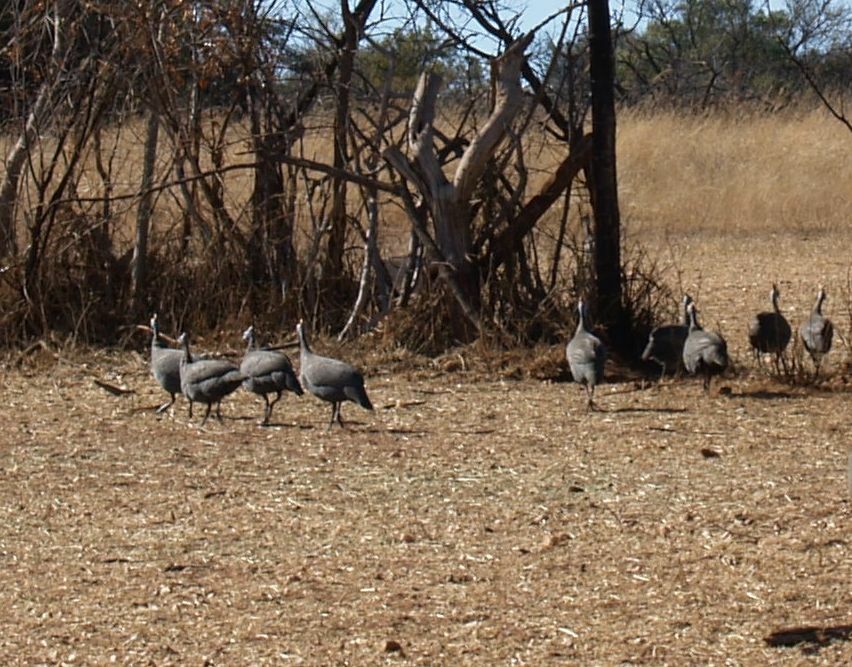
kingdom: Animalia
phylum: Chordata
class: Aves
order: Galliformes
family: Numididae
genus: Numida
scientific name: Numida meleagris
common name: Helmeted guineafowl
